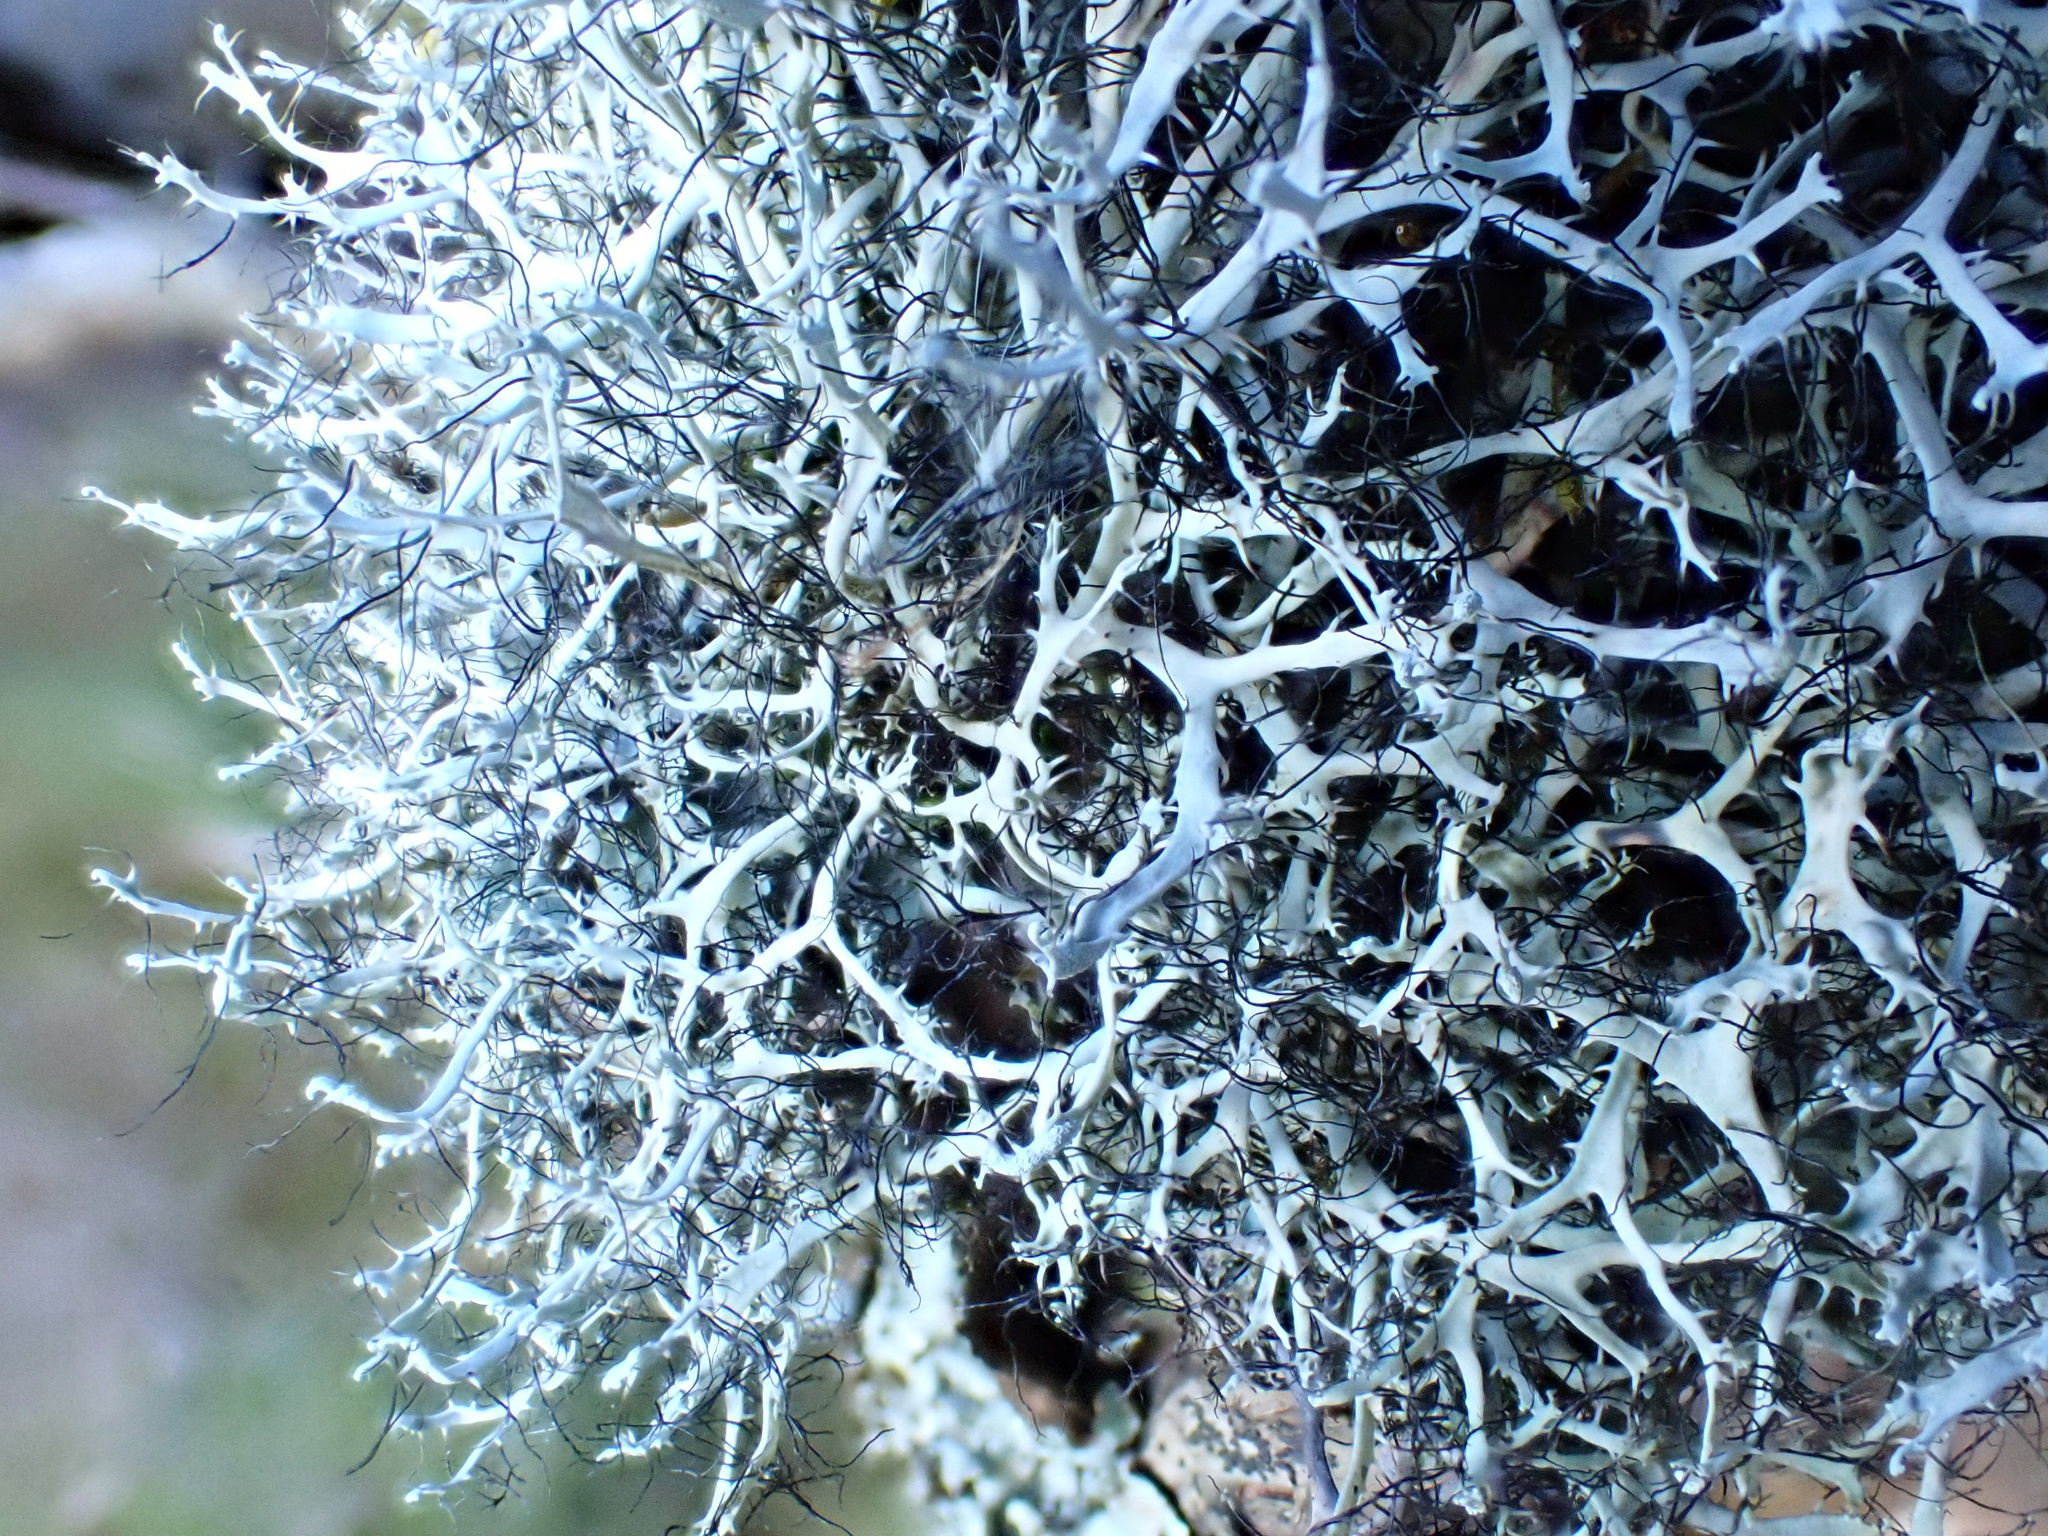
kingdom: Fungi
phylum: Ascomycota
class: Lecanoromycetes
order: Caliciales
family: Physciaceae
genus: Leucodermia
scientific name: Leucodermia leucomelos
